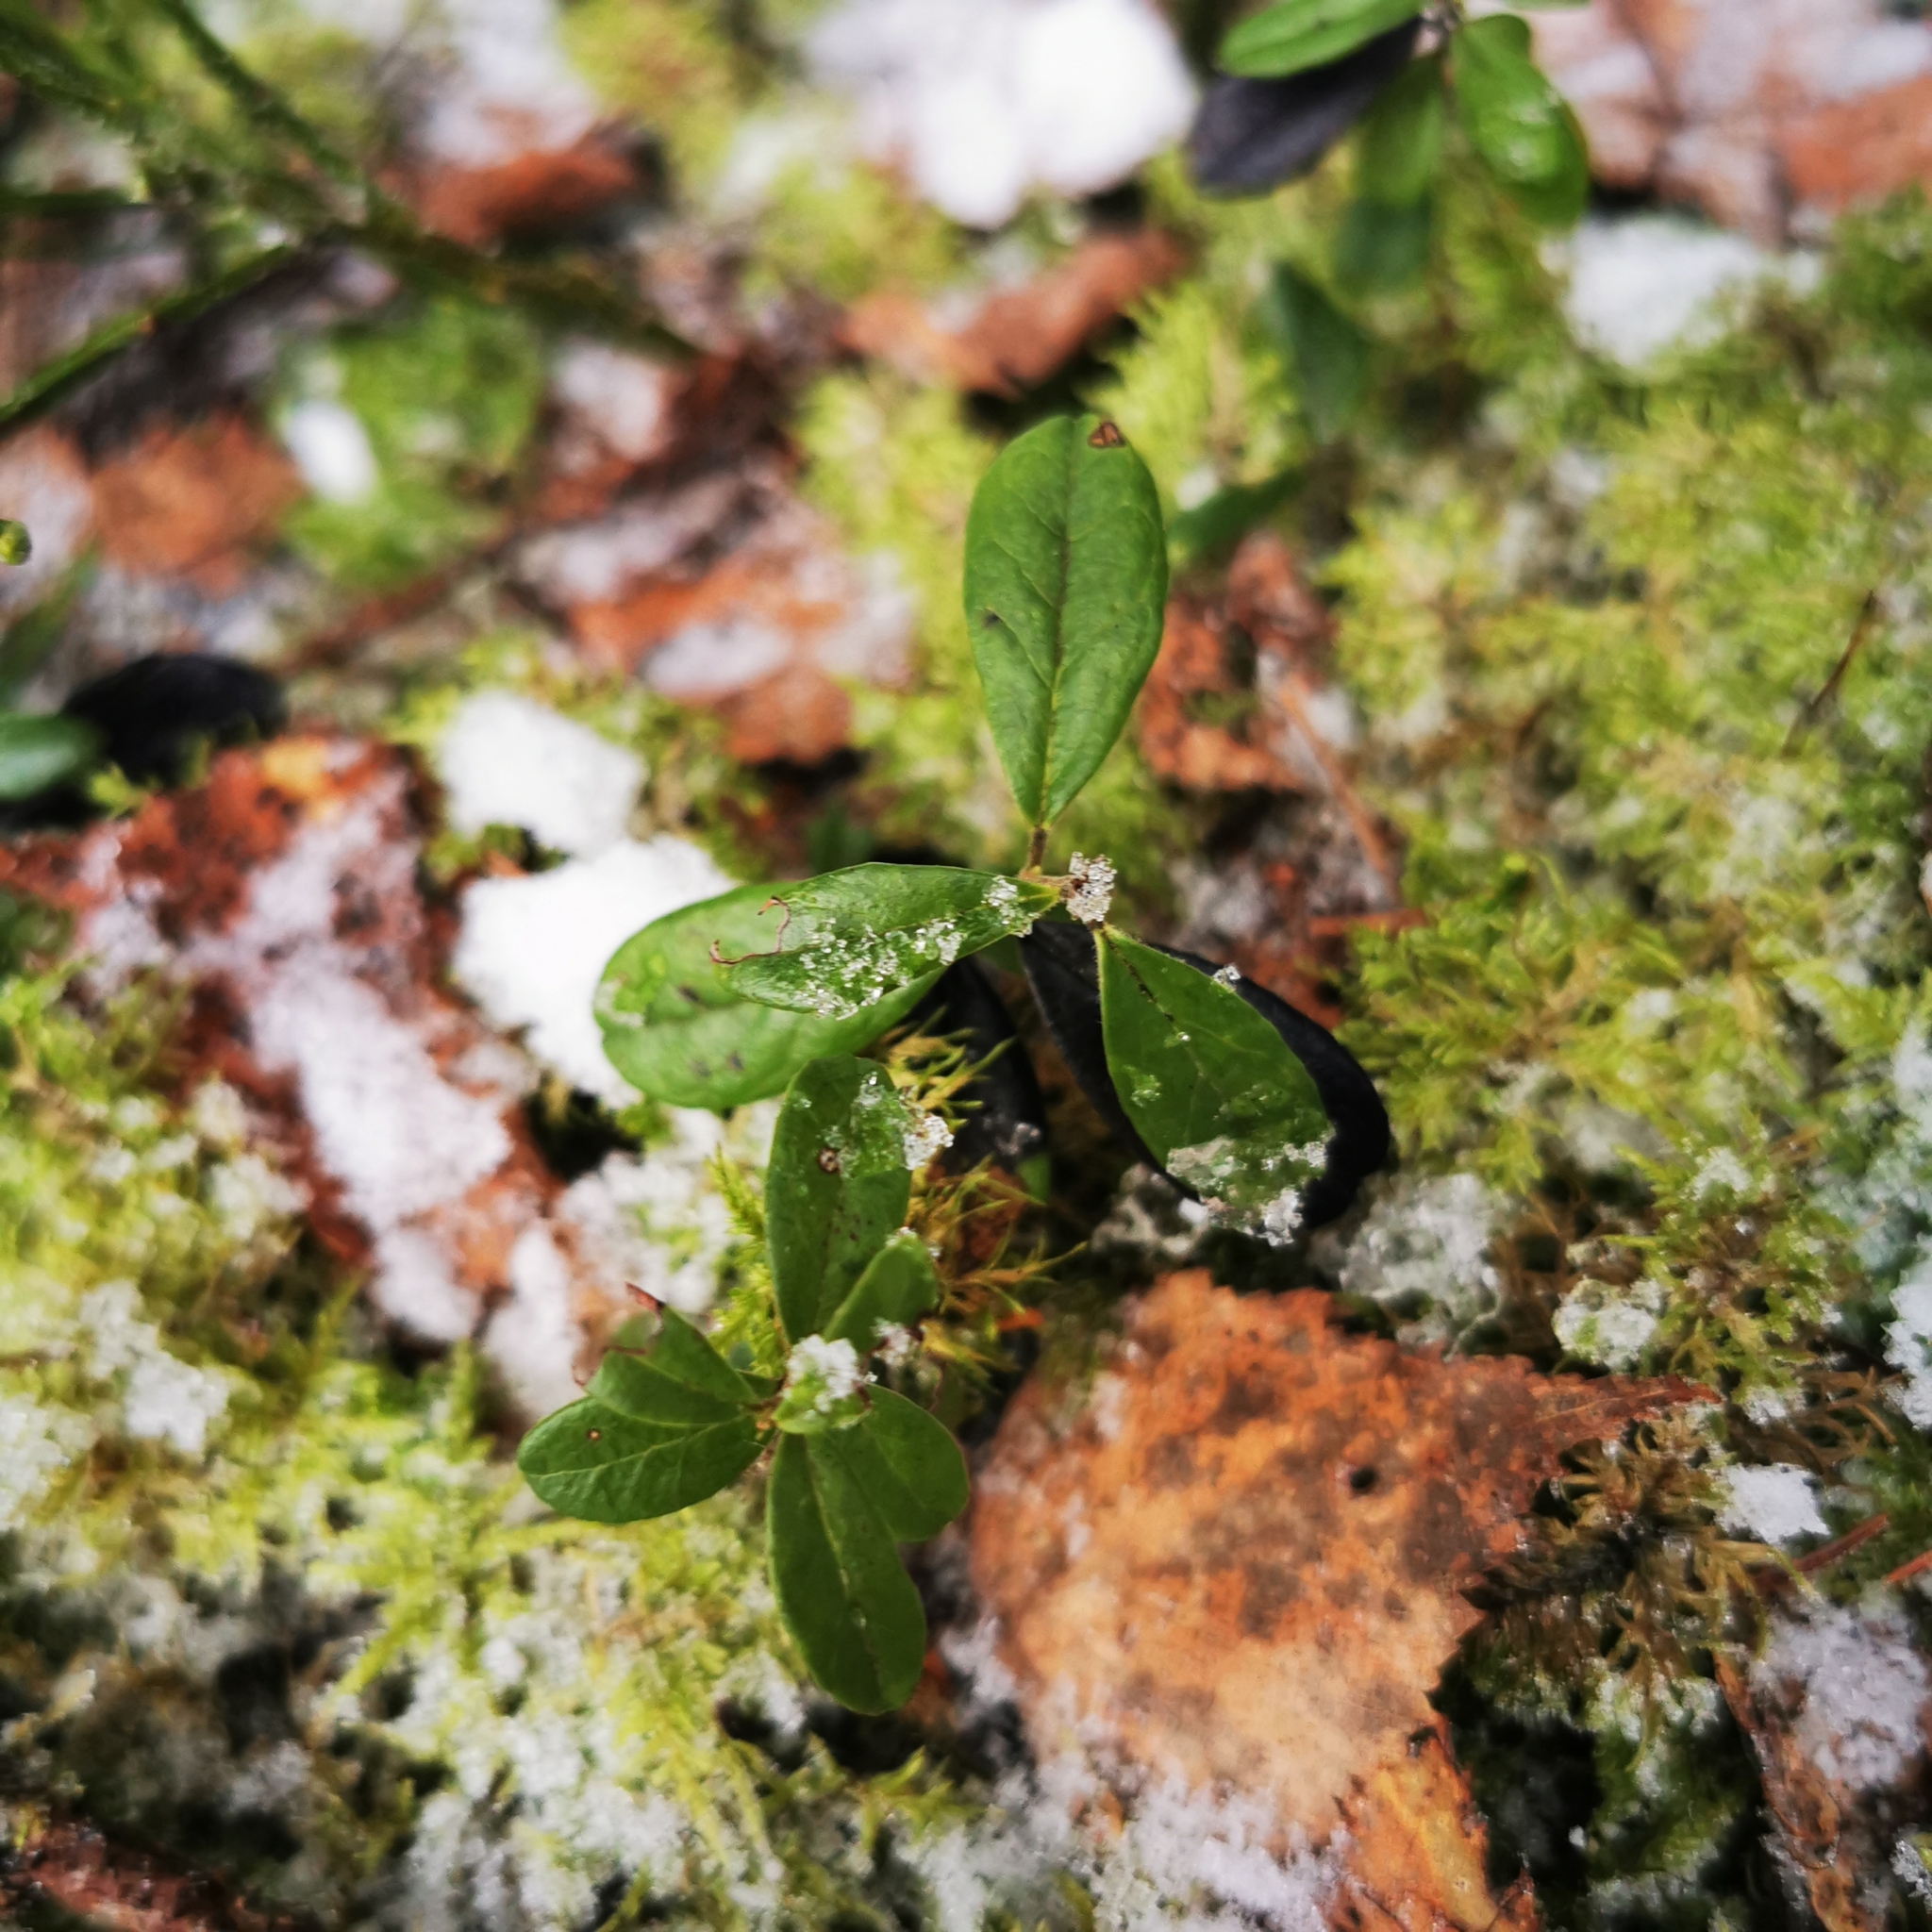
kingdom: Plantae
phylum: Tracheophyta
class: Magnoliopsida
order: Ericales
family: Ericaceae
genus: Vaccinium
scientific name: Vaccinium vitis-idaea
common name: Cowberry
